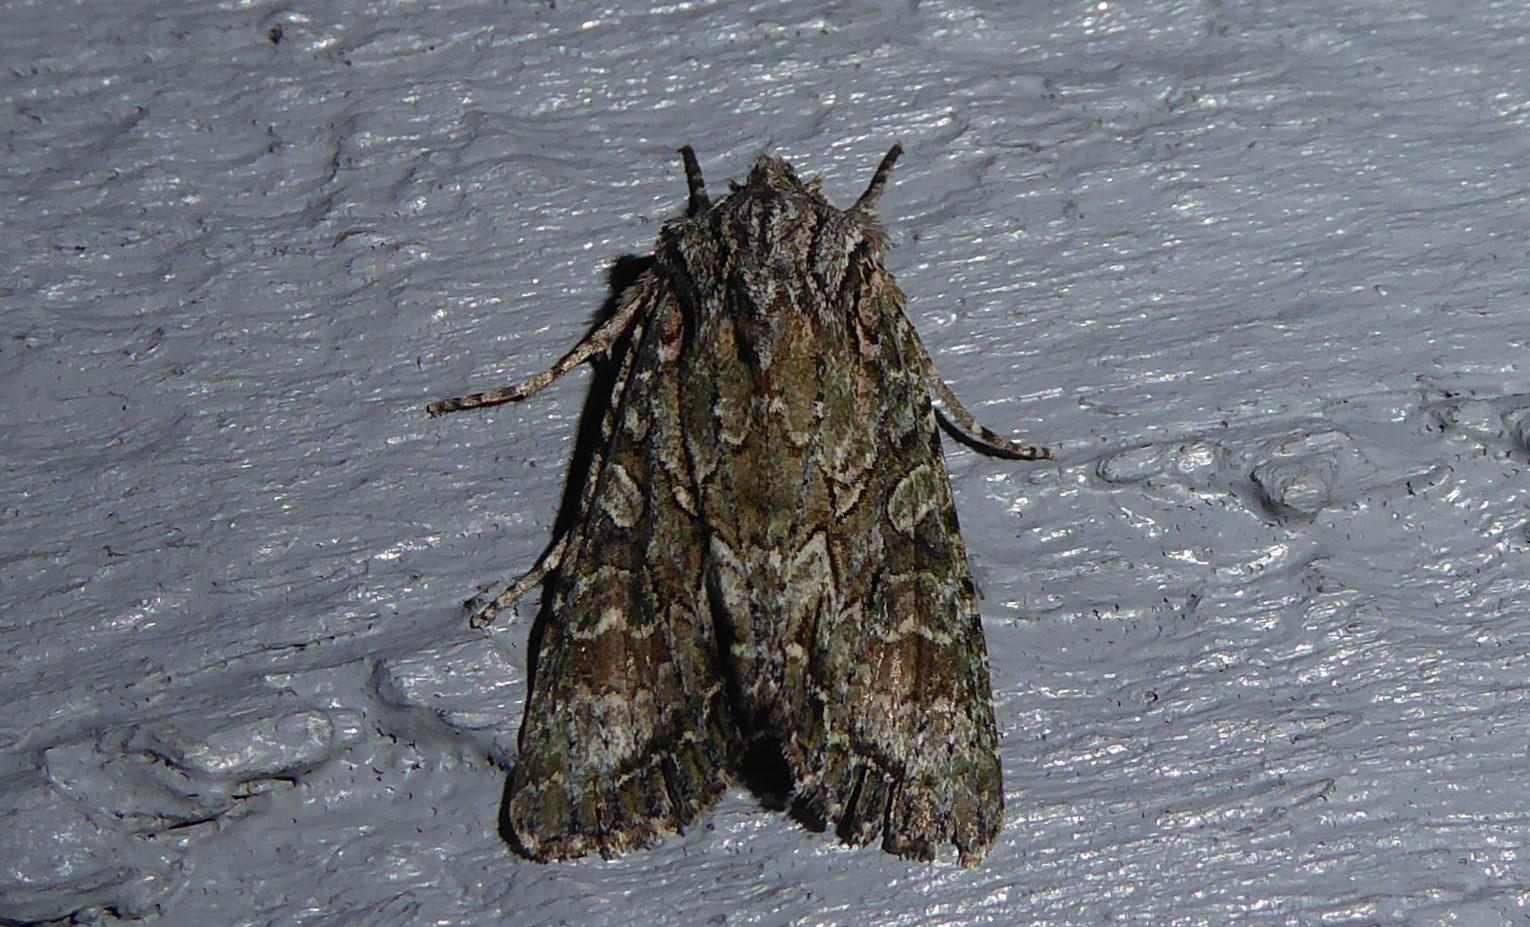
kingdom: Animalia
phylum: Arthropoda
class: Insecta
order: Lepidoptera
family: Noctuidae
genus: Ichneutica
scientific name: Ichneutica mutans
